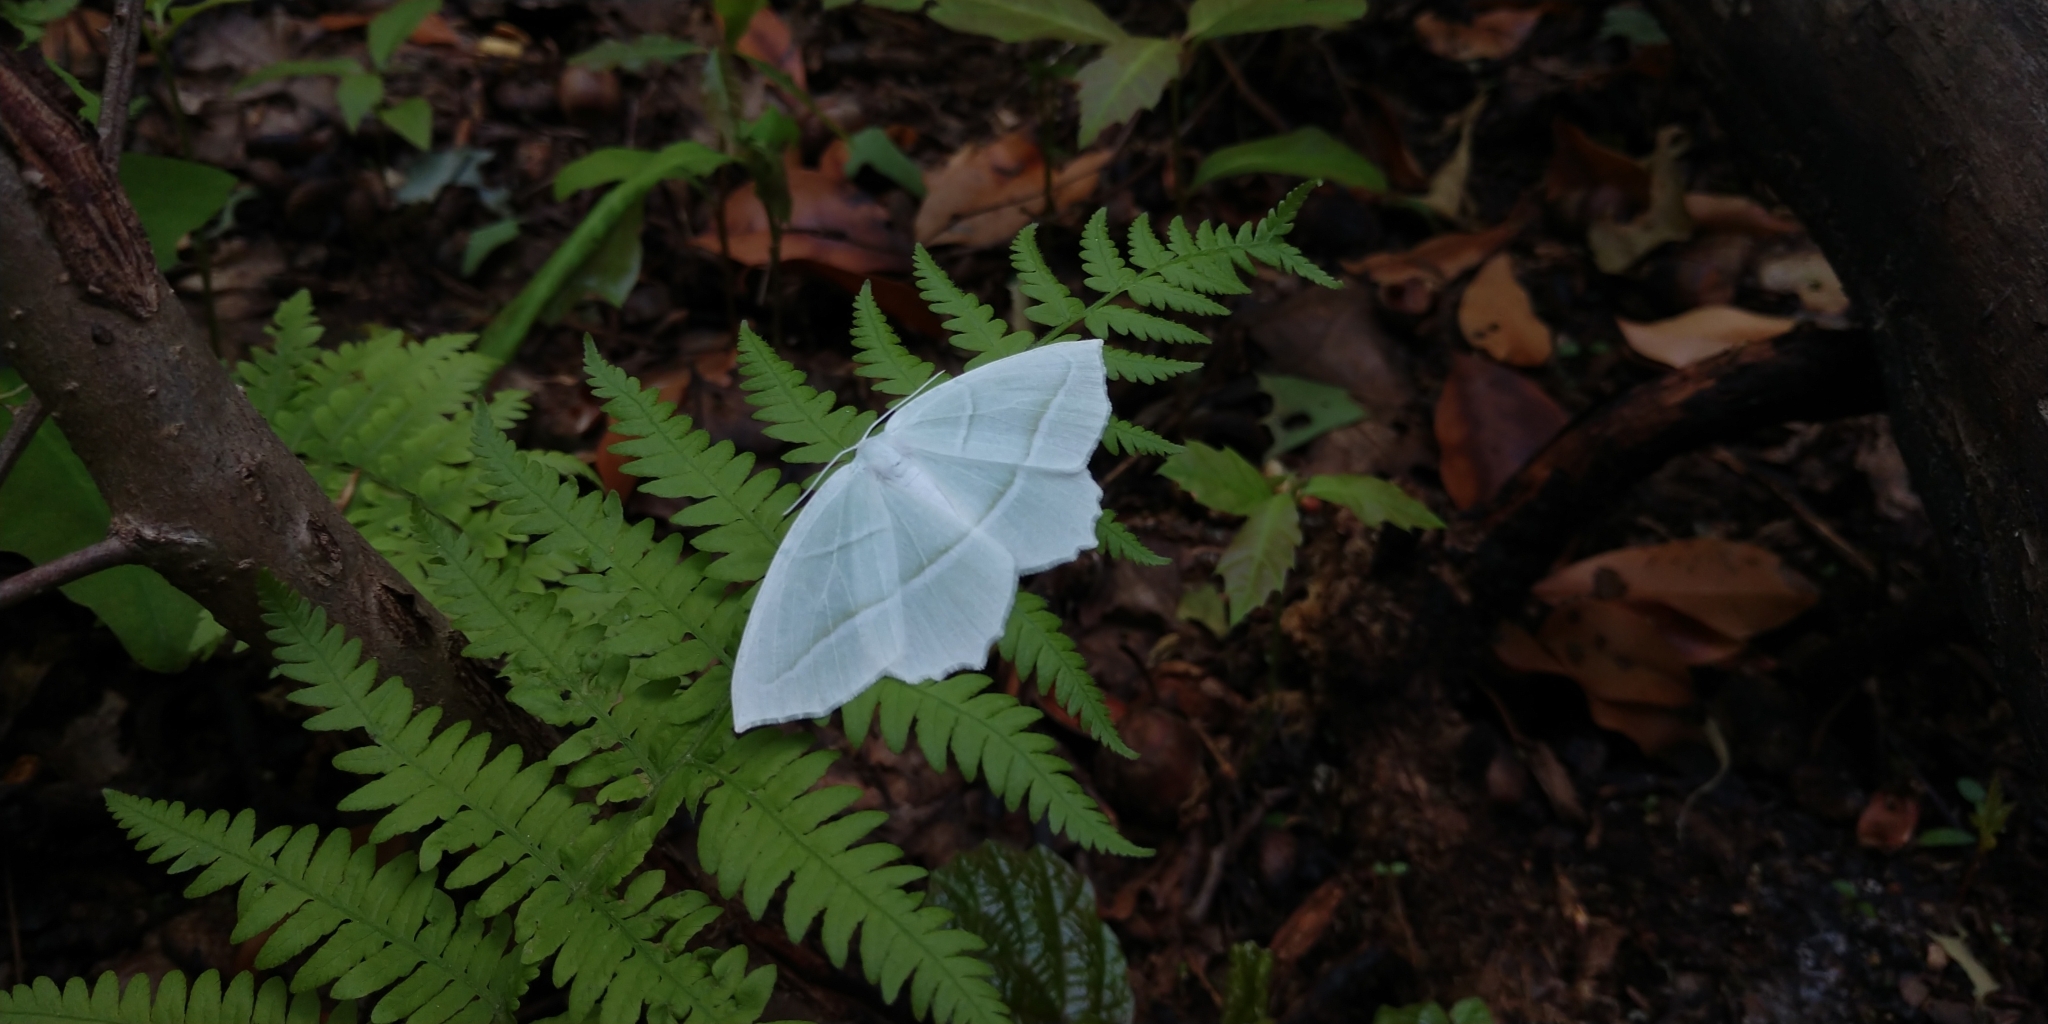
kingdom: Animalia
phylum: Arthropoda
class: Insecta
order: Lepidoptera
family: Geometridae
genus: Campaea
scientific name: Campaea perlata
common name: Fringed looper
